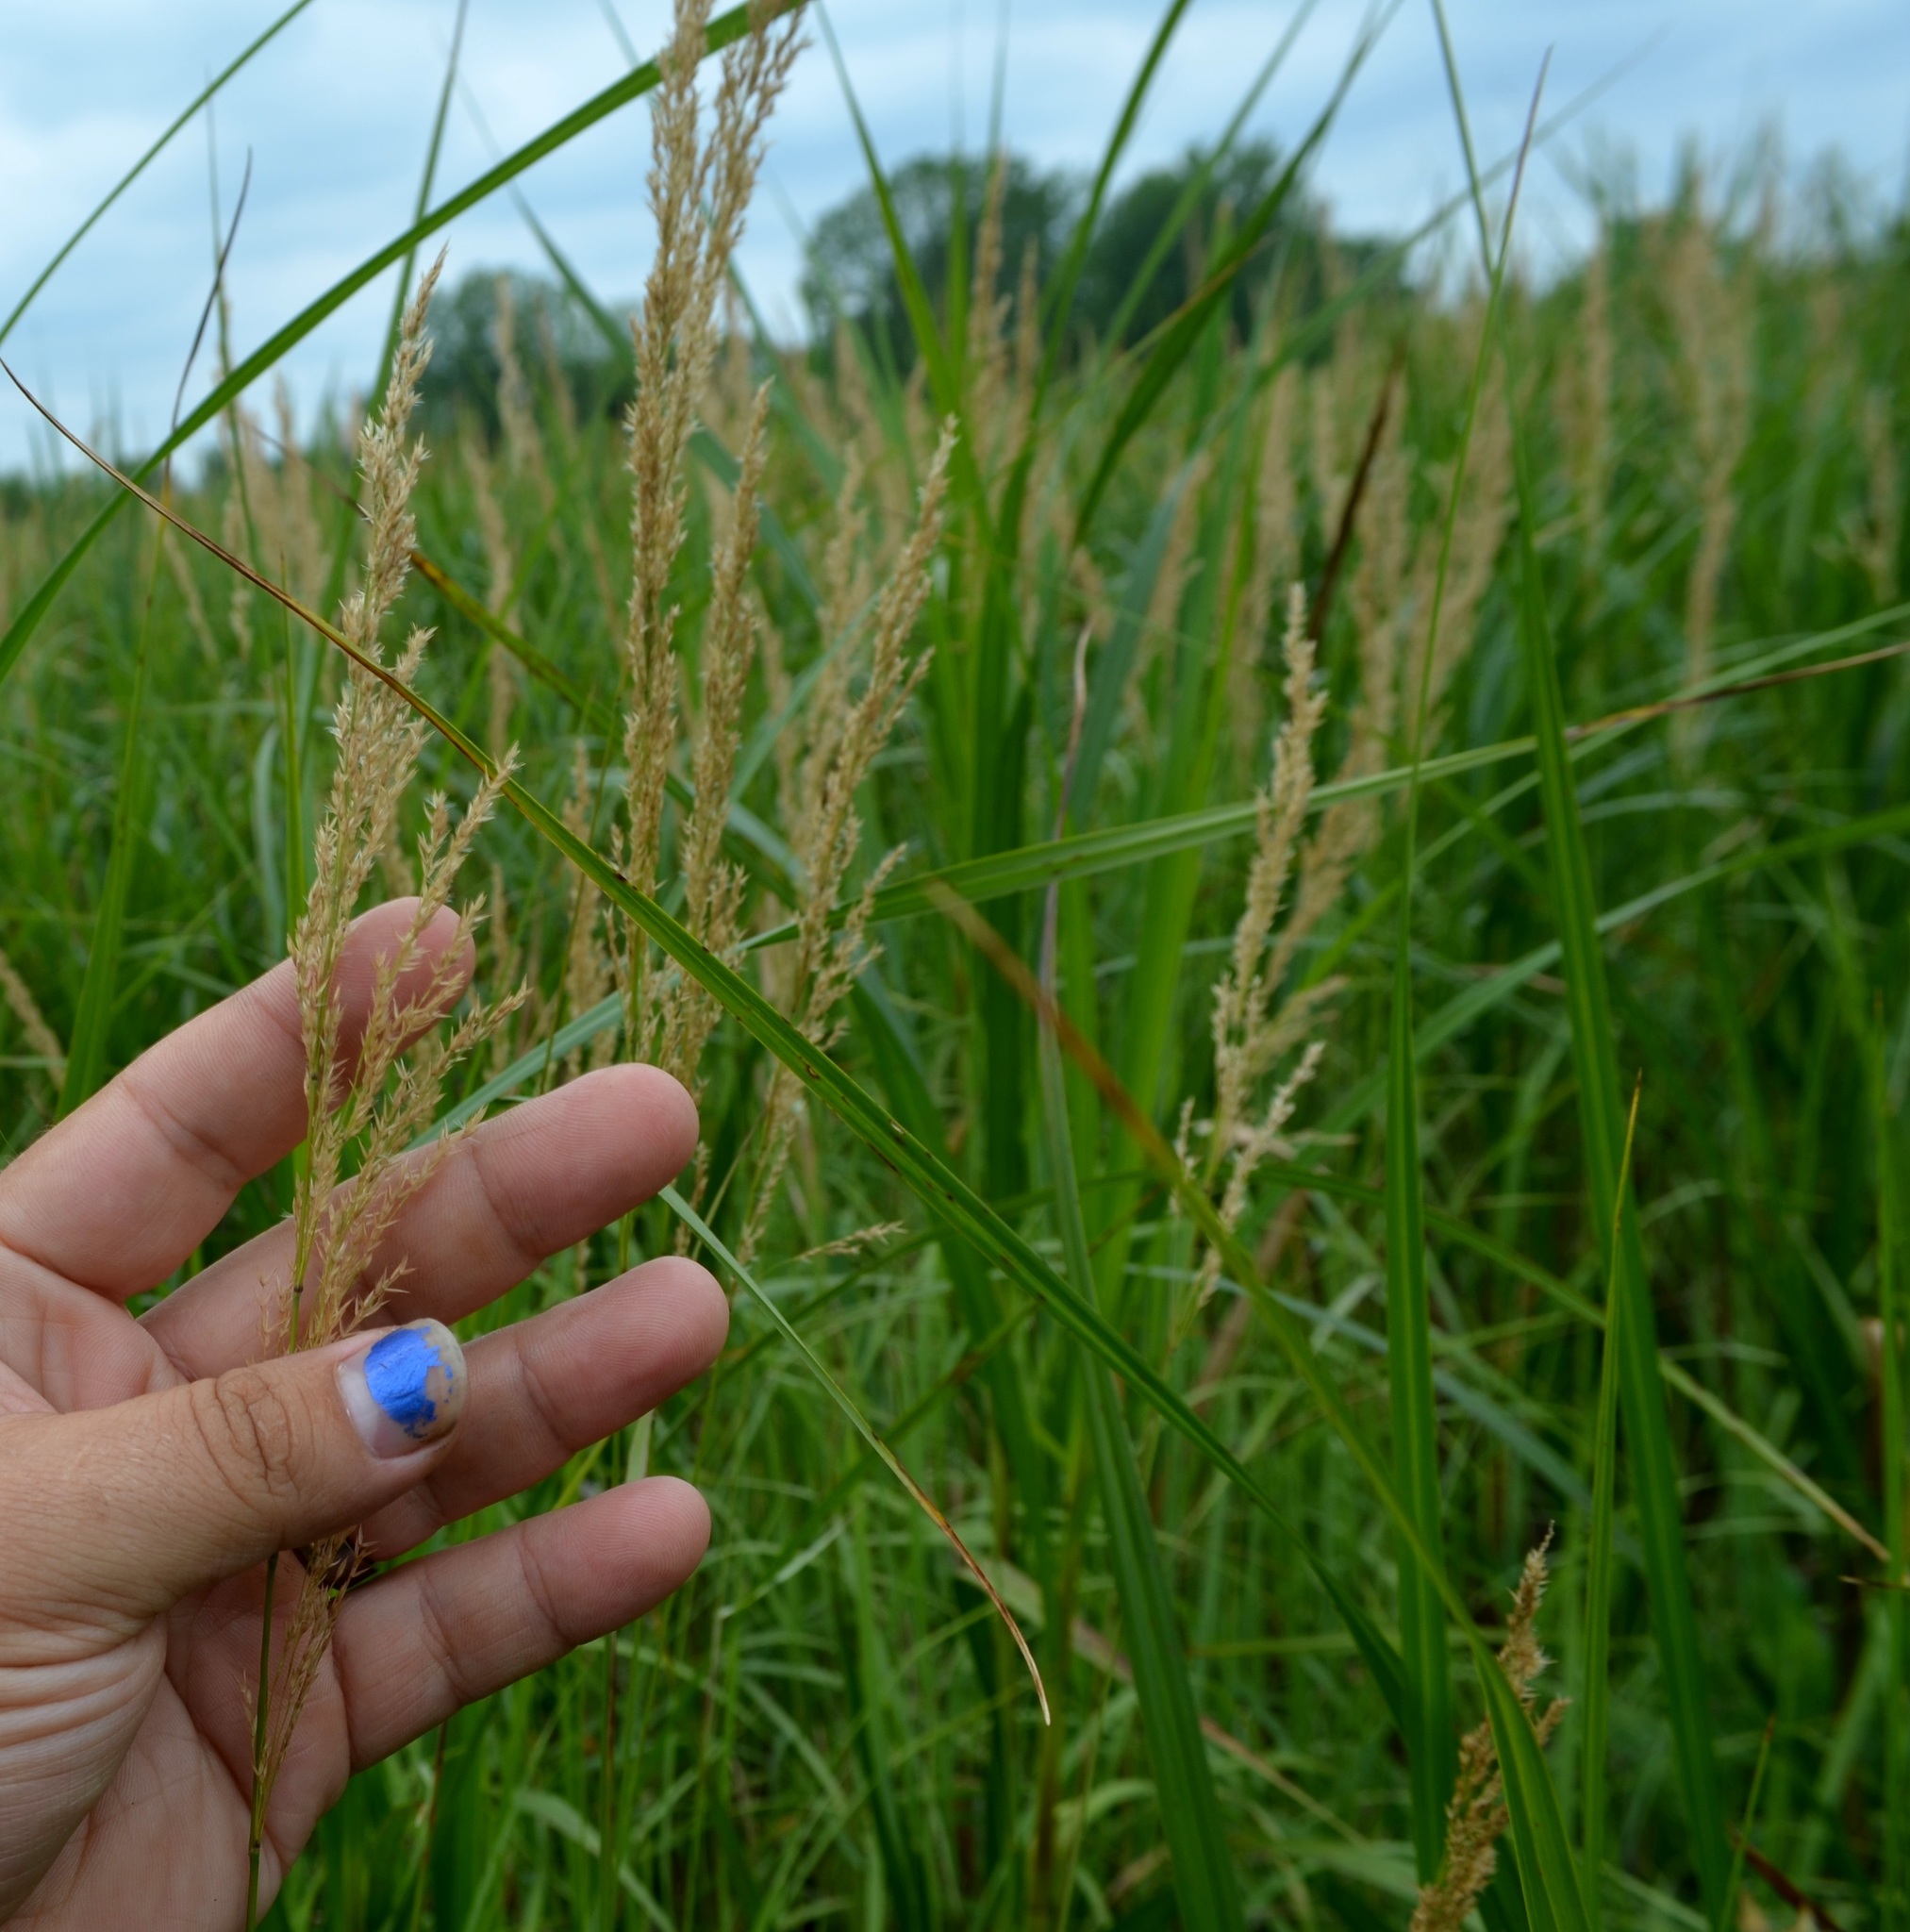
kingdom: Plantae
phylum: Tracheophyta
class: Liliopsida
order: Poales
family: Poaceae
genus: Calamagrostis
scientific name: Calamagrostis canadensis
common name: Canada bluejoint
